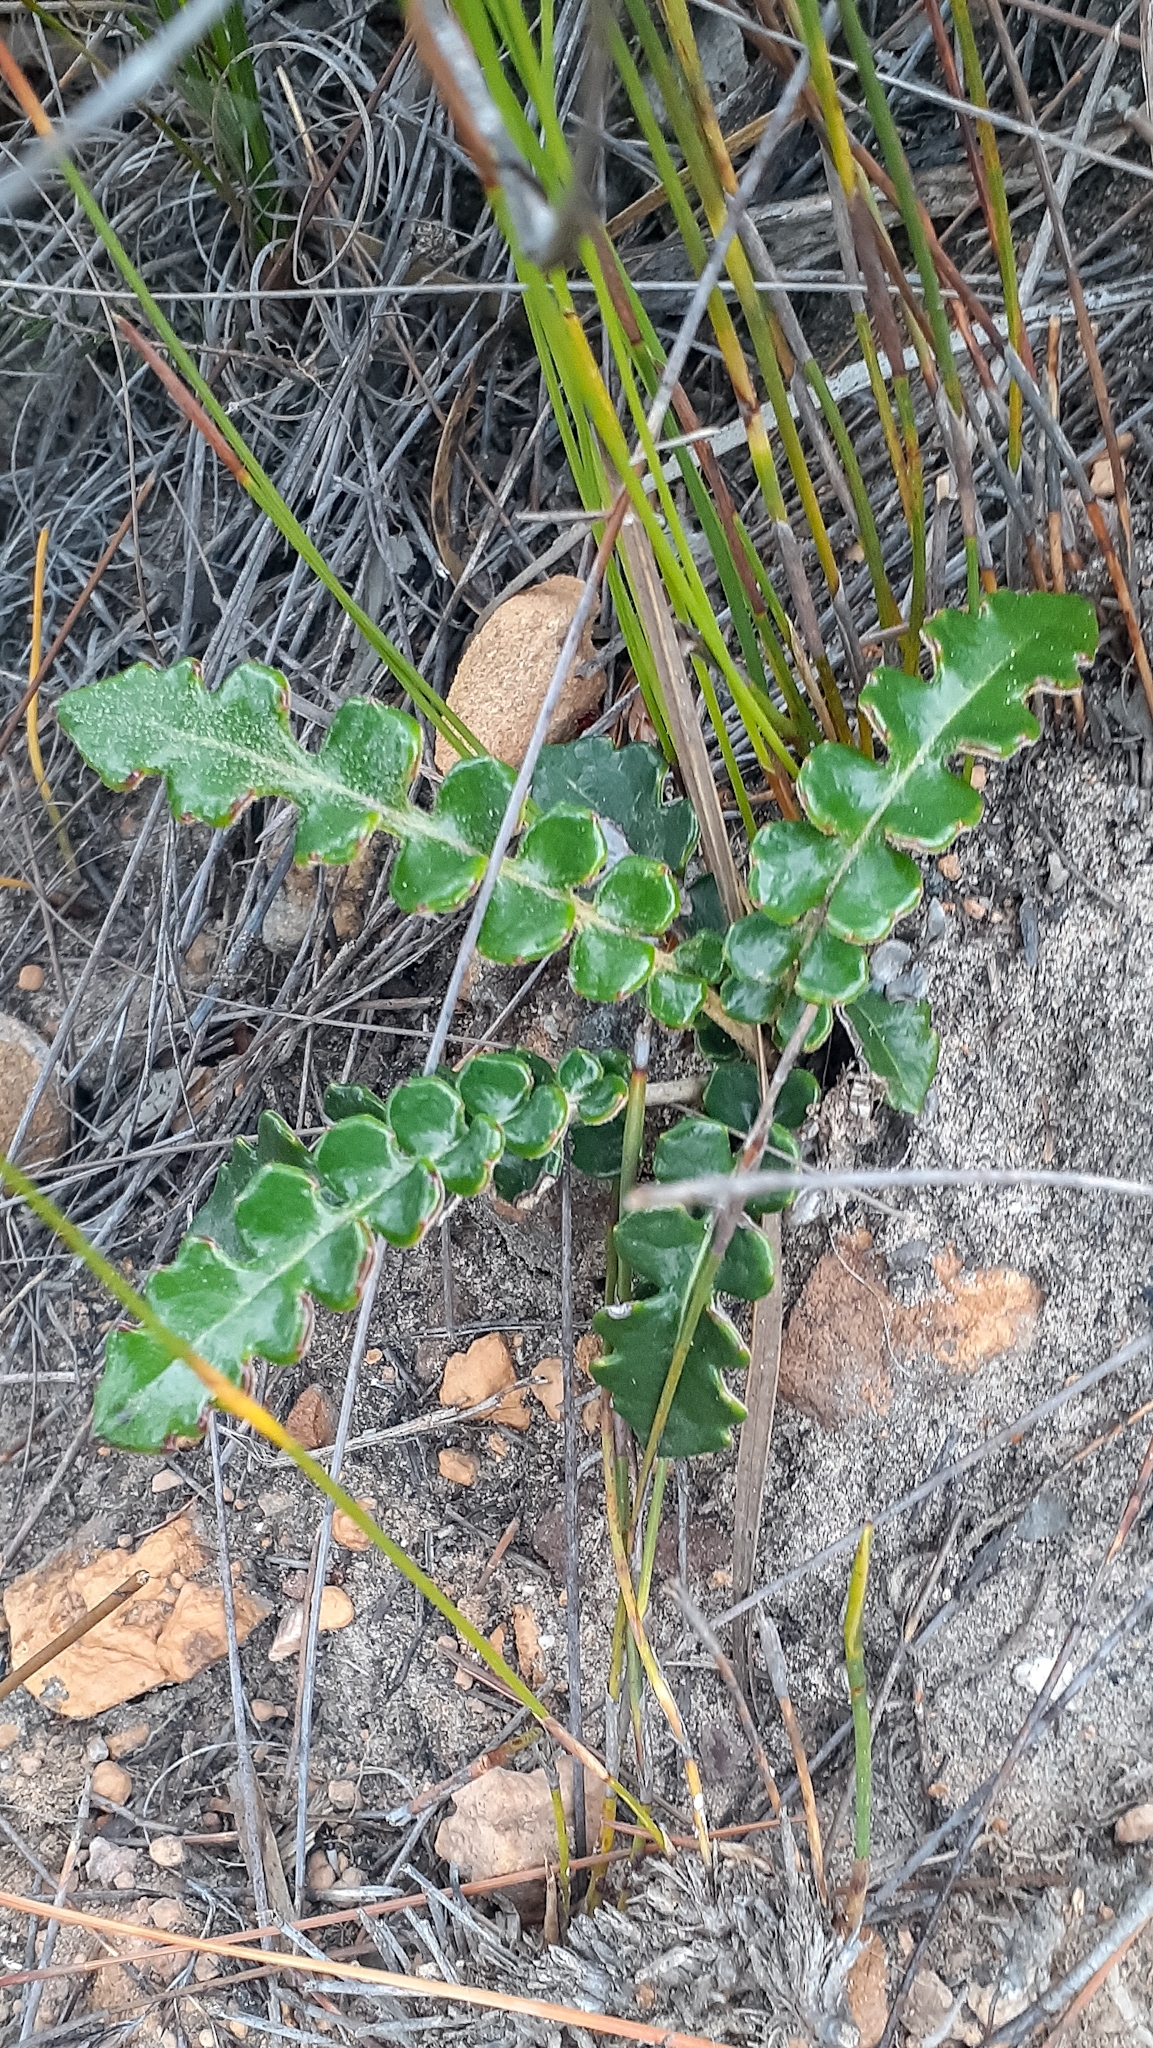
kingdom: Plantae
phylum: Tracheophyta
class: Magnoliopsida
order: Asterales
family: Asteraceae
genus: Gerbera
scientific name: Gerbera linnaei
